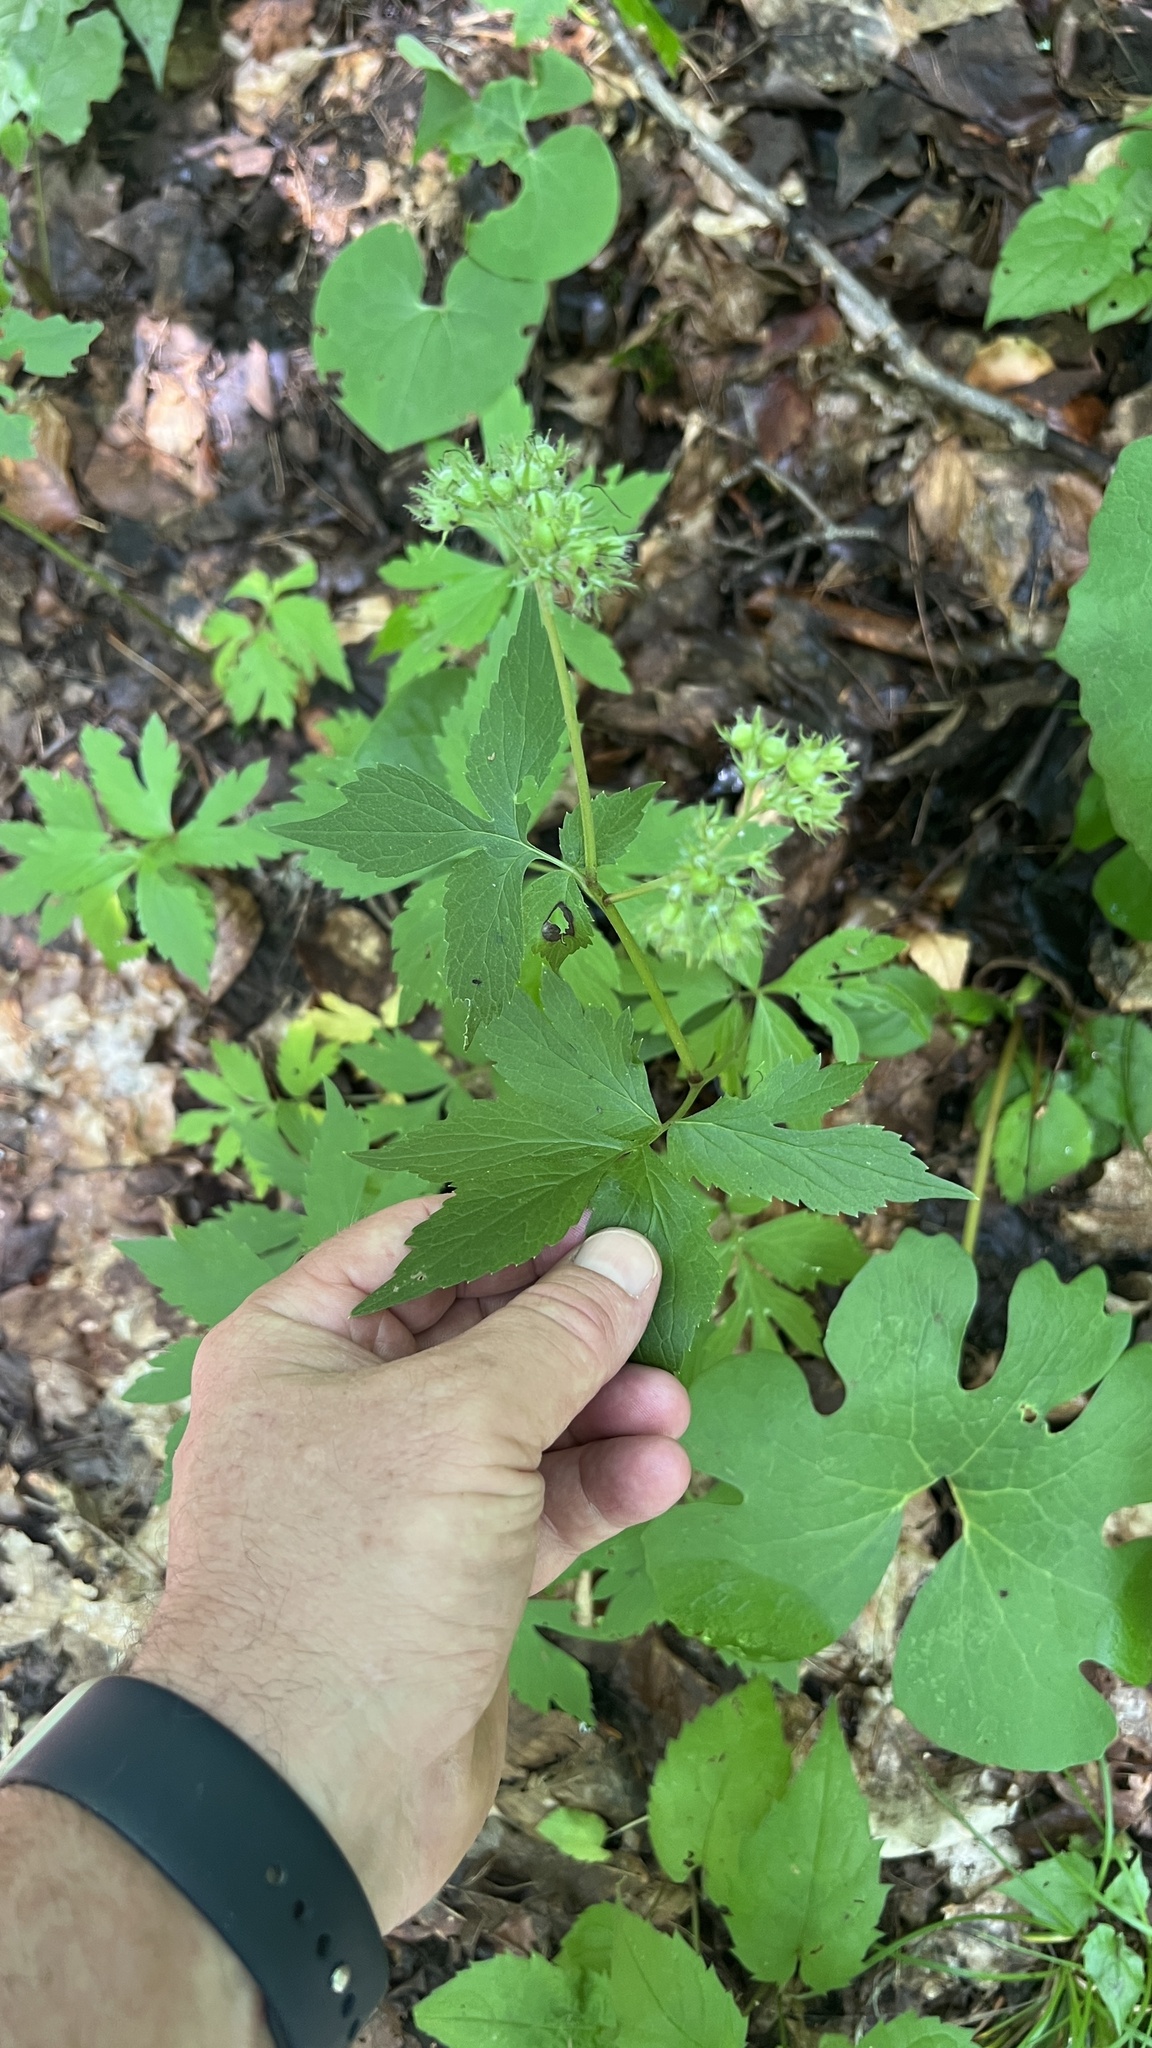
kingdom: Plantae
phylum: Tracheophyta
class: Magnoliopsida
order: Boraginales
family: Hydrophyllaceae
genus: Hydrophyllum
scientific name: Hydrophyllum virginianum
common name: Virginia waterleaf
